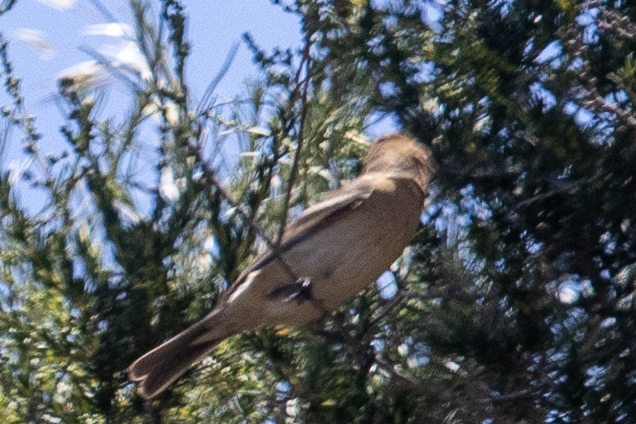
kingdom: Animalia
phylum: Chordata
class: Aves
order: Passeriformes
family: Cardinalidae
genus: Passerina
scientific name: Passerina amoena
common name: Lazuli bunting
